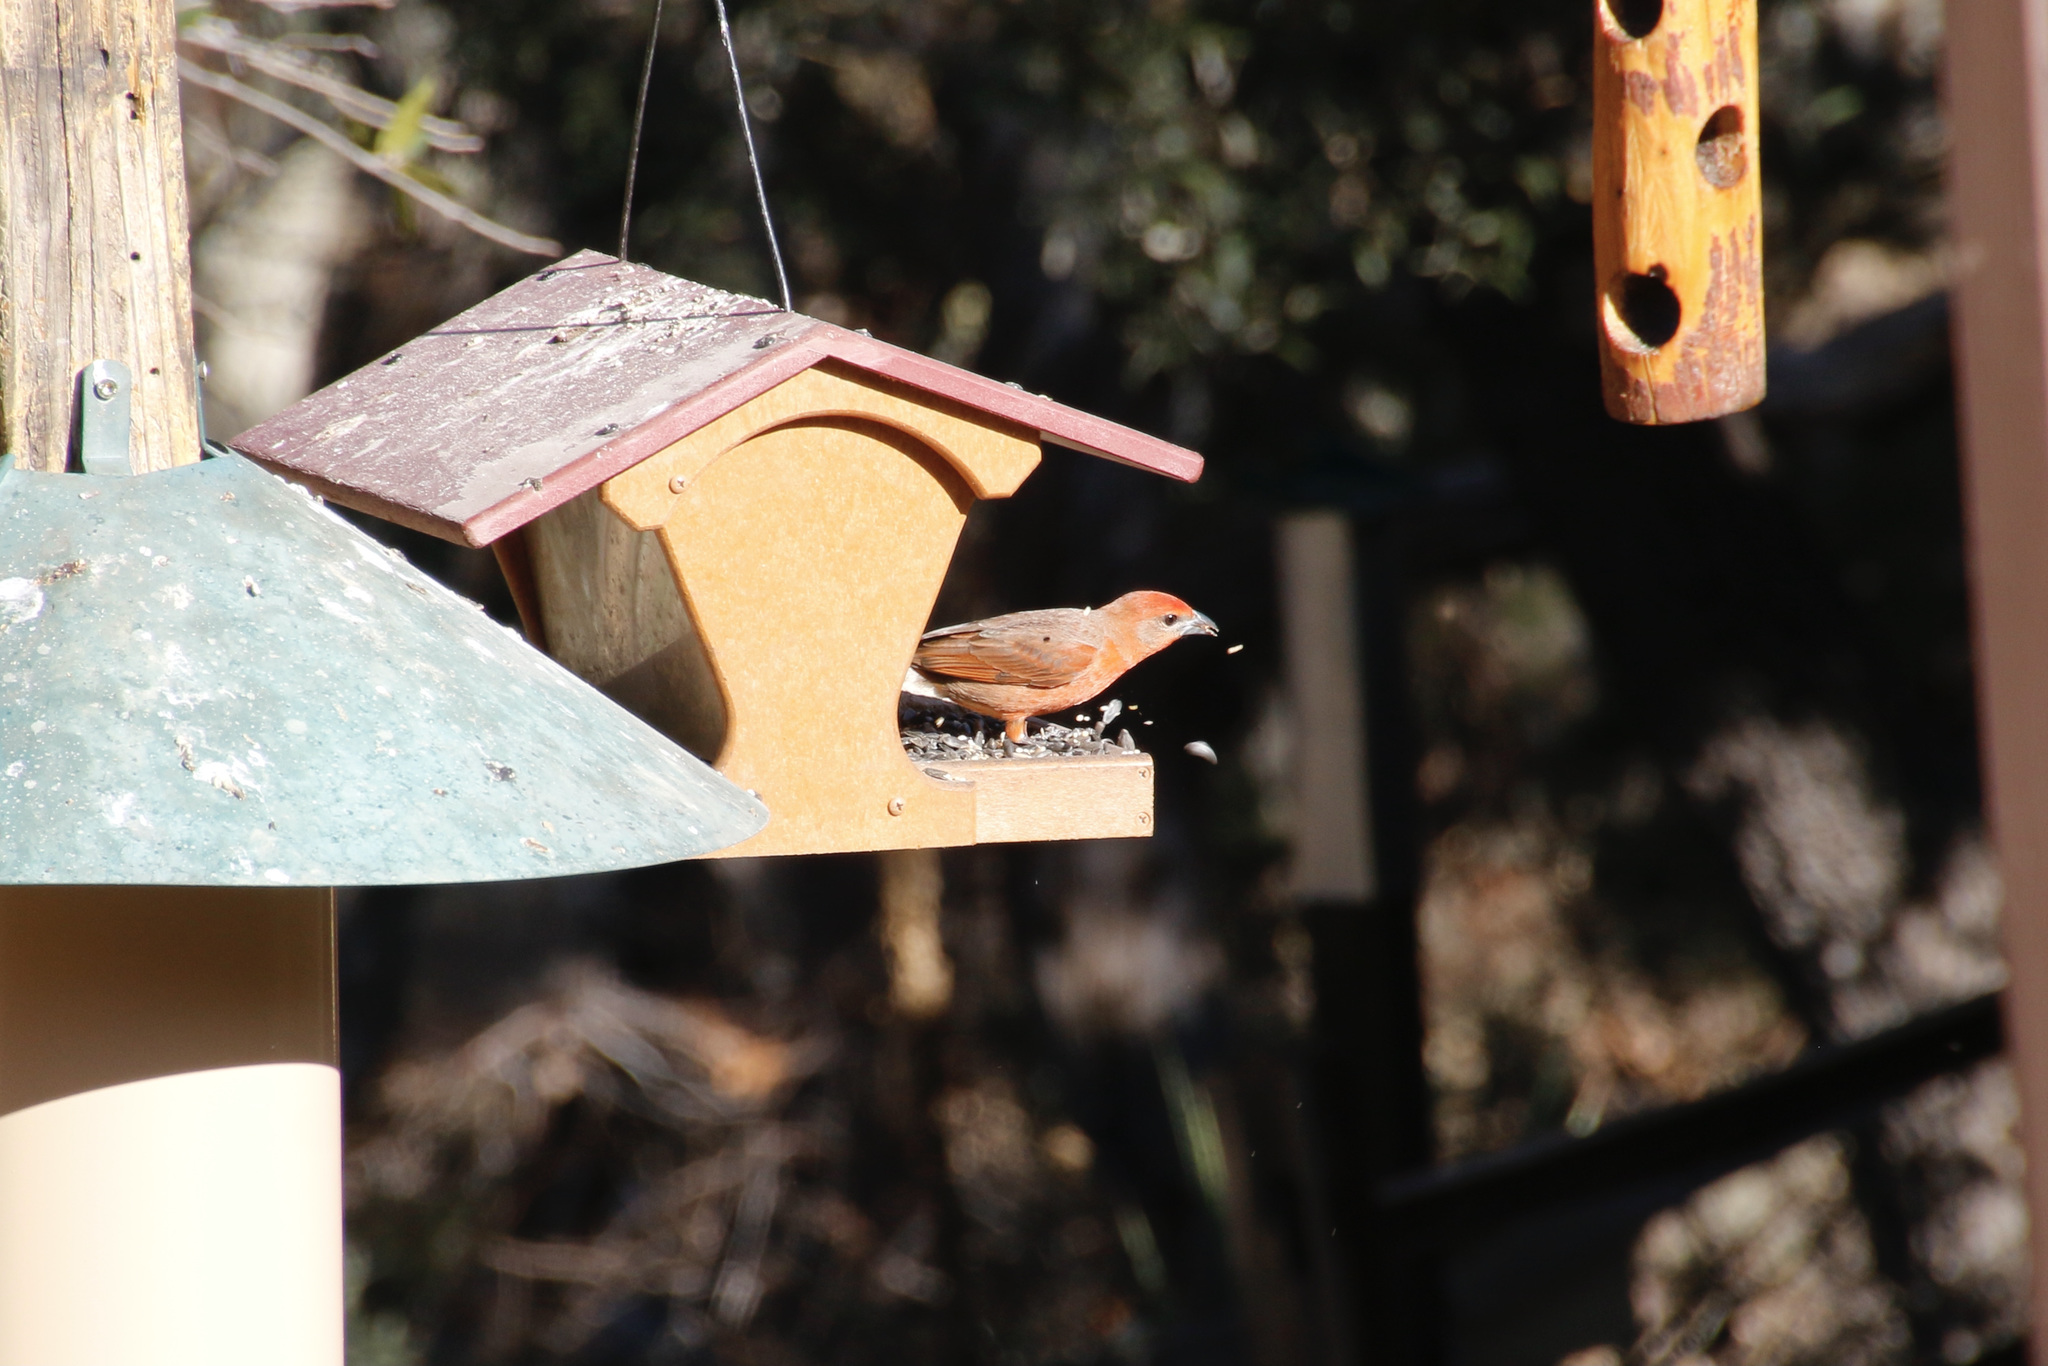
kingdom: Animalia
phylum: Chordata
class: Aves
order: Passeriformes
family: Cardinalidae
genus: Piranga
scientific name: Piranga flava
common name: Red tanager
